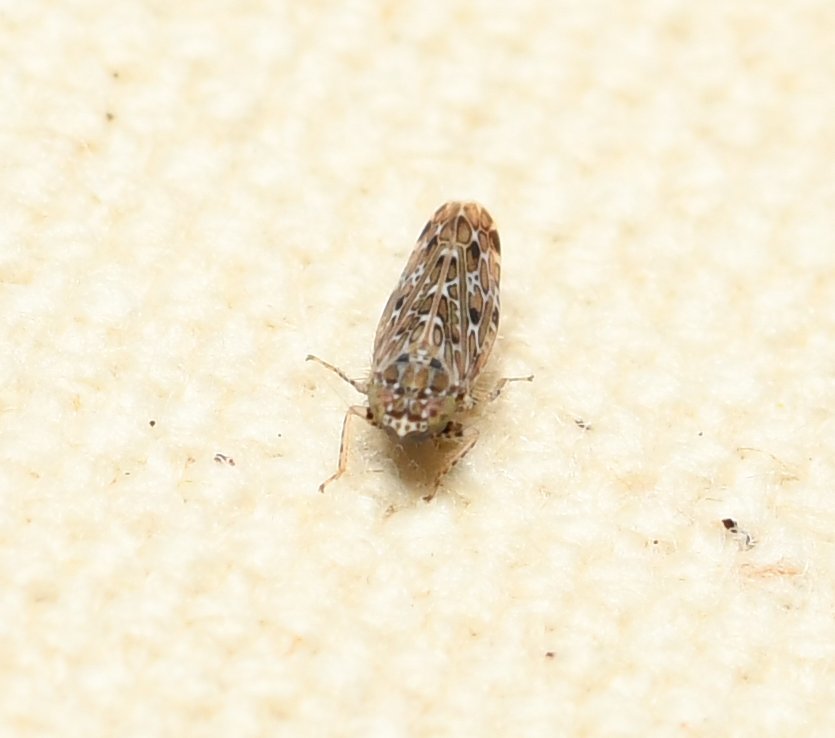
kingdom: Animalia
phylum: Arthropoda
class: Insecta
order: Hemiptera
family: Cicadellidae
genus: Polyamia
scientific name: Polyamia weedi
